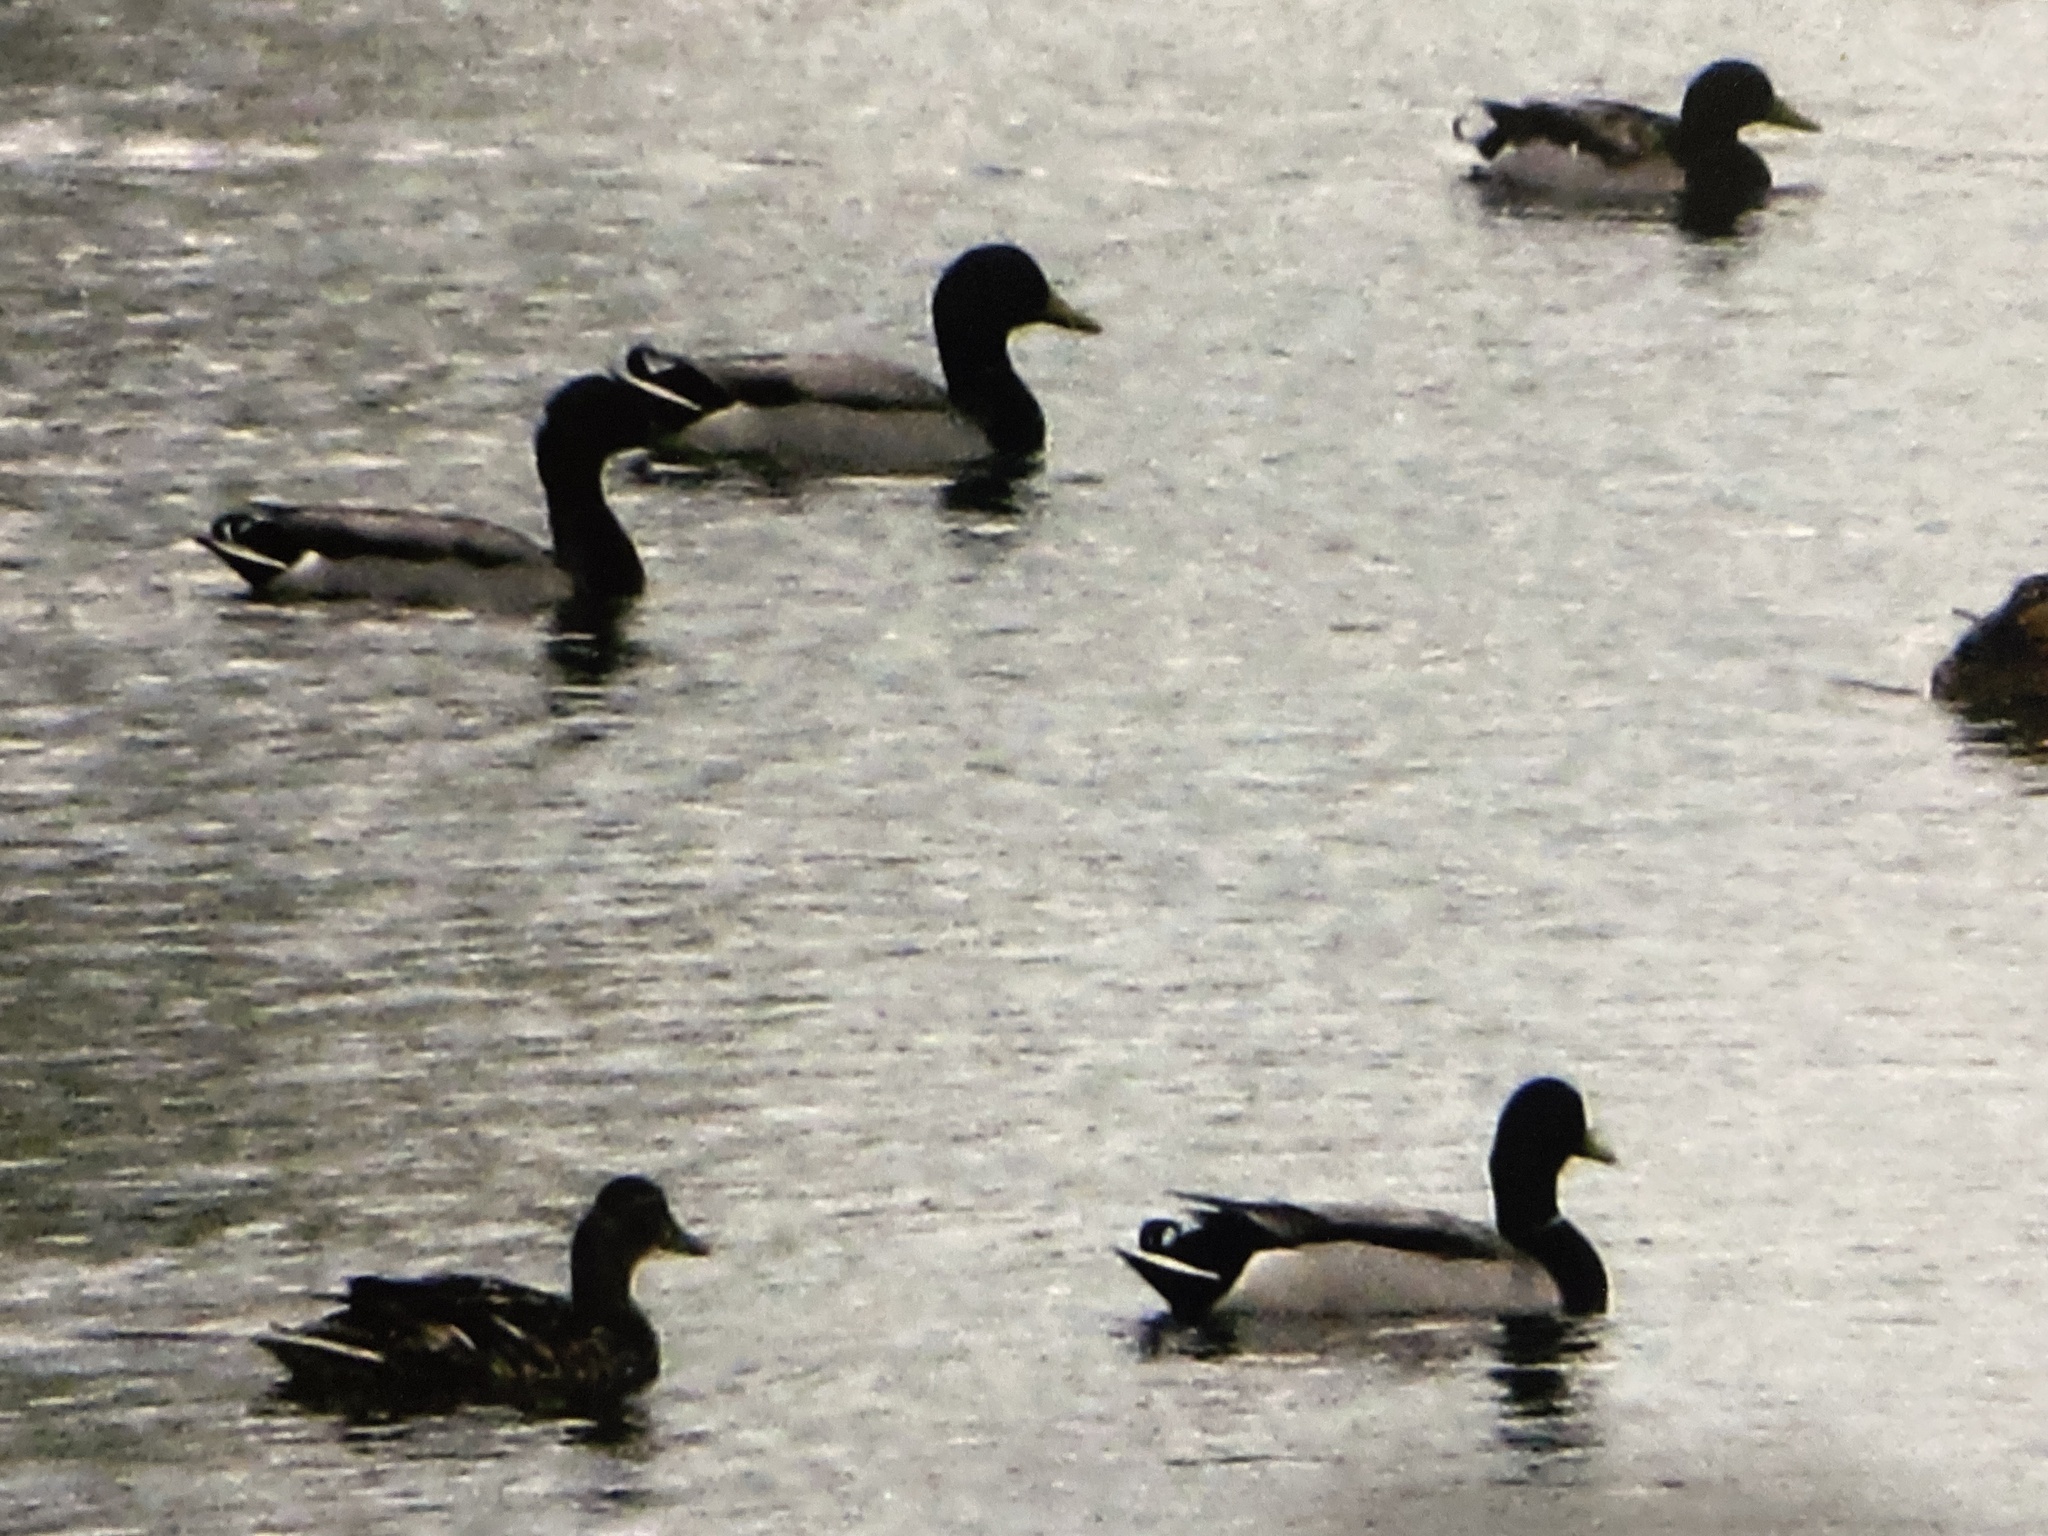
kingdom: Animalia
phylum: Chordata
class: Aves
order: Anseriformes
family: Anatidae
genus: Anas
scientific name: Anas platyrhynchos
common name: Mallard
